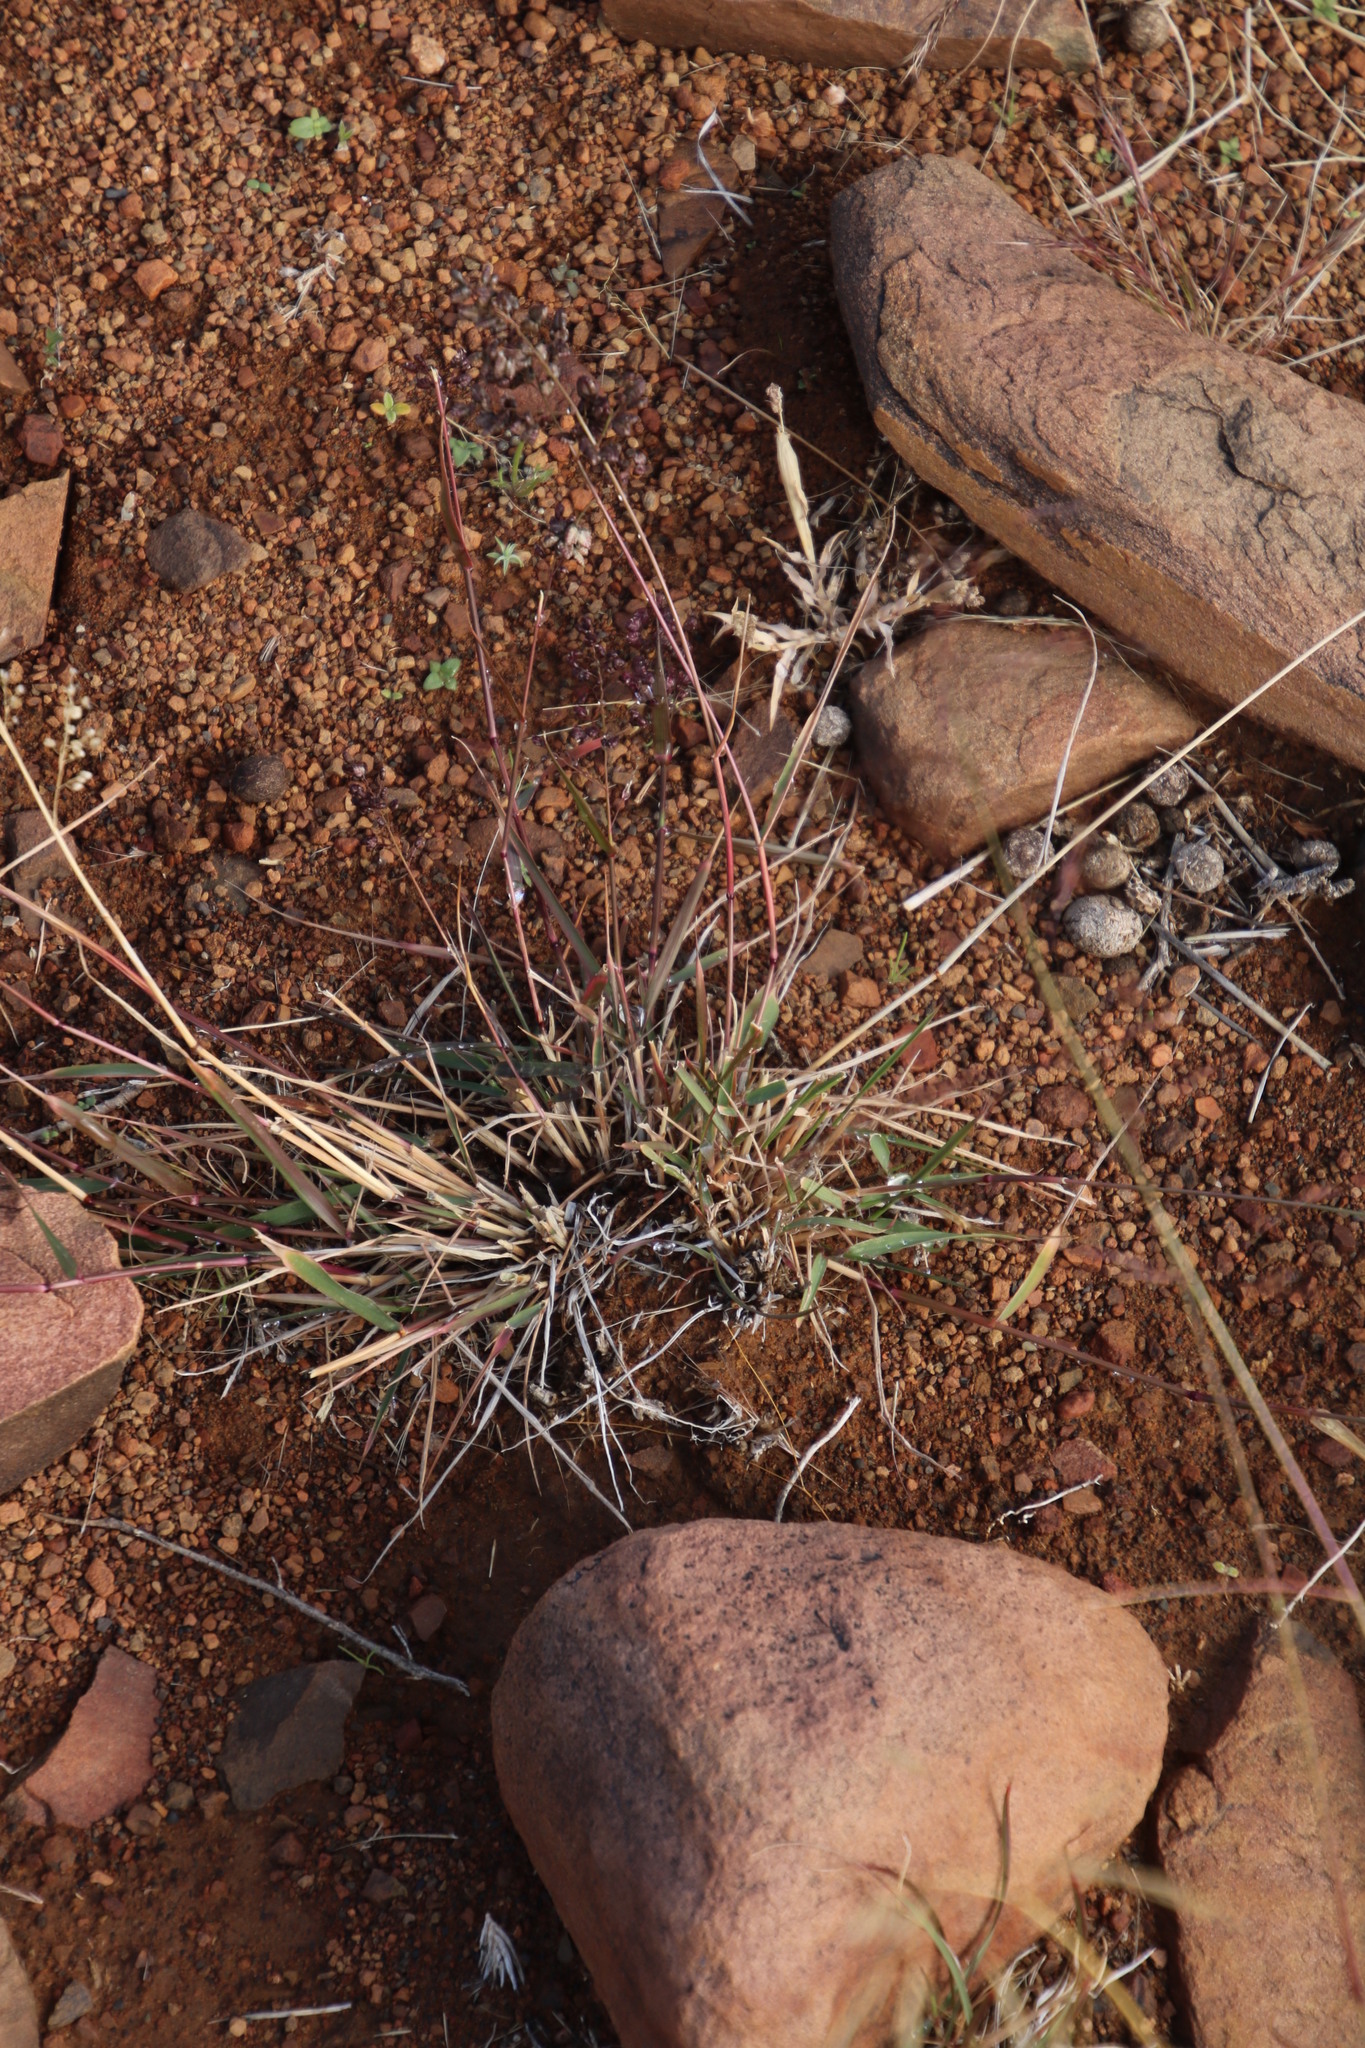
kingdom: Plantae
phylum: Tracheophyta
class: Liliopsida
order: Poales
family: Poaceae
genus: Eragrostis
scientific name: Eragrostis obtusa
